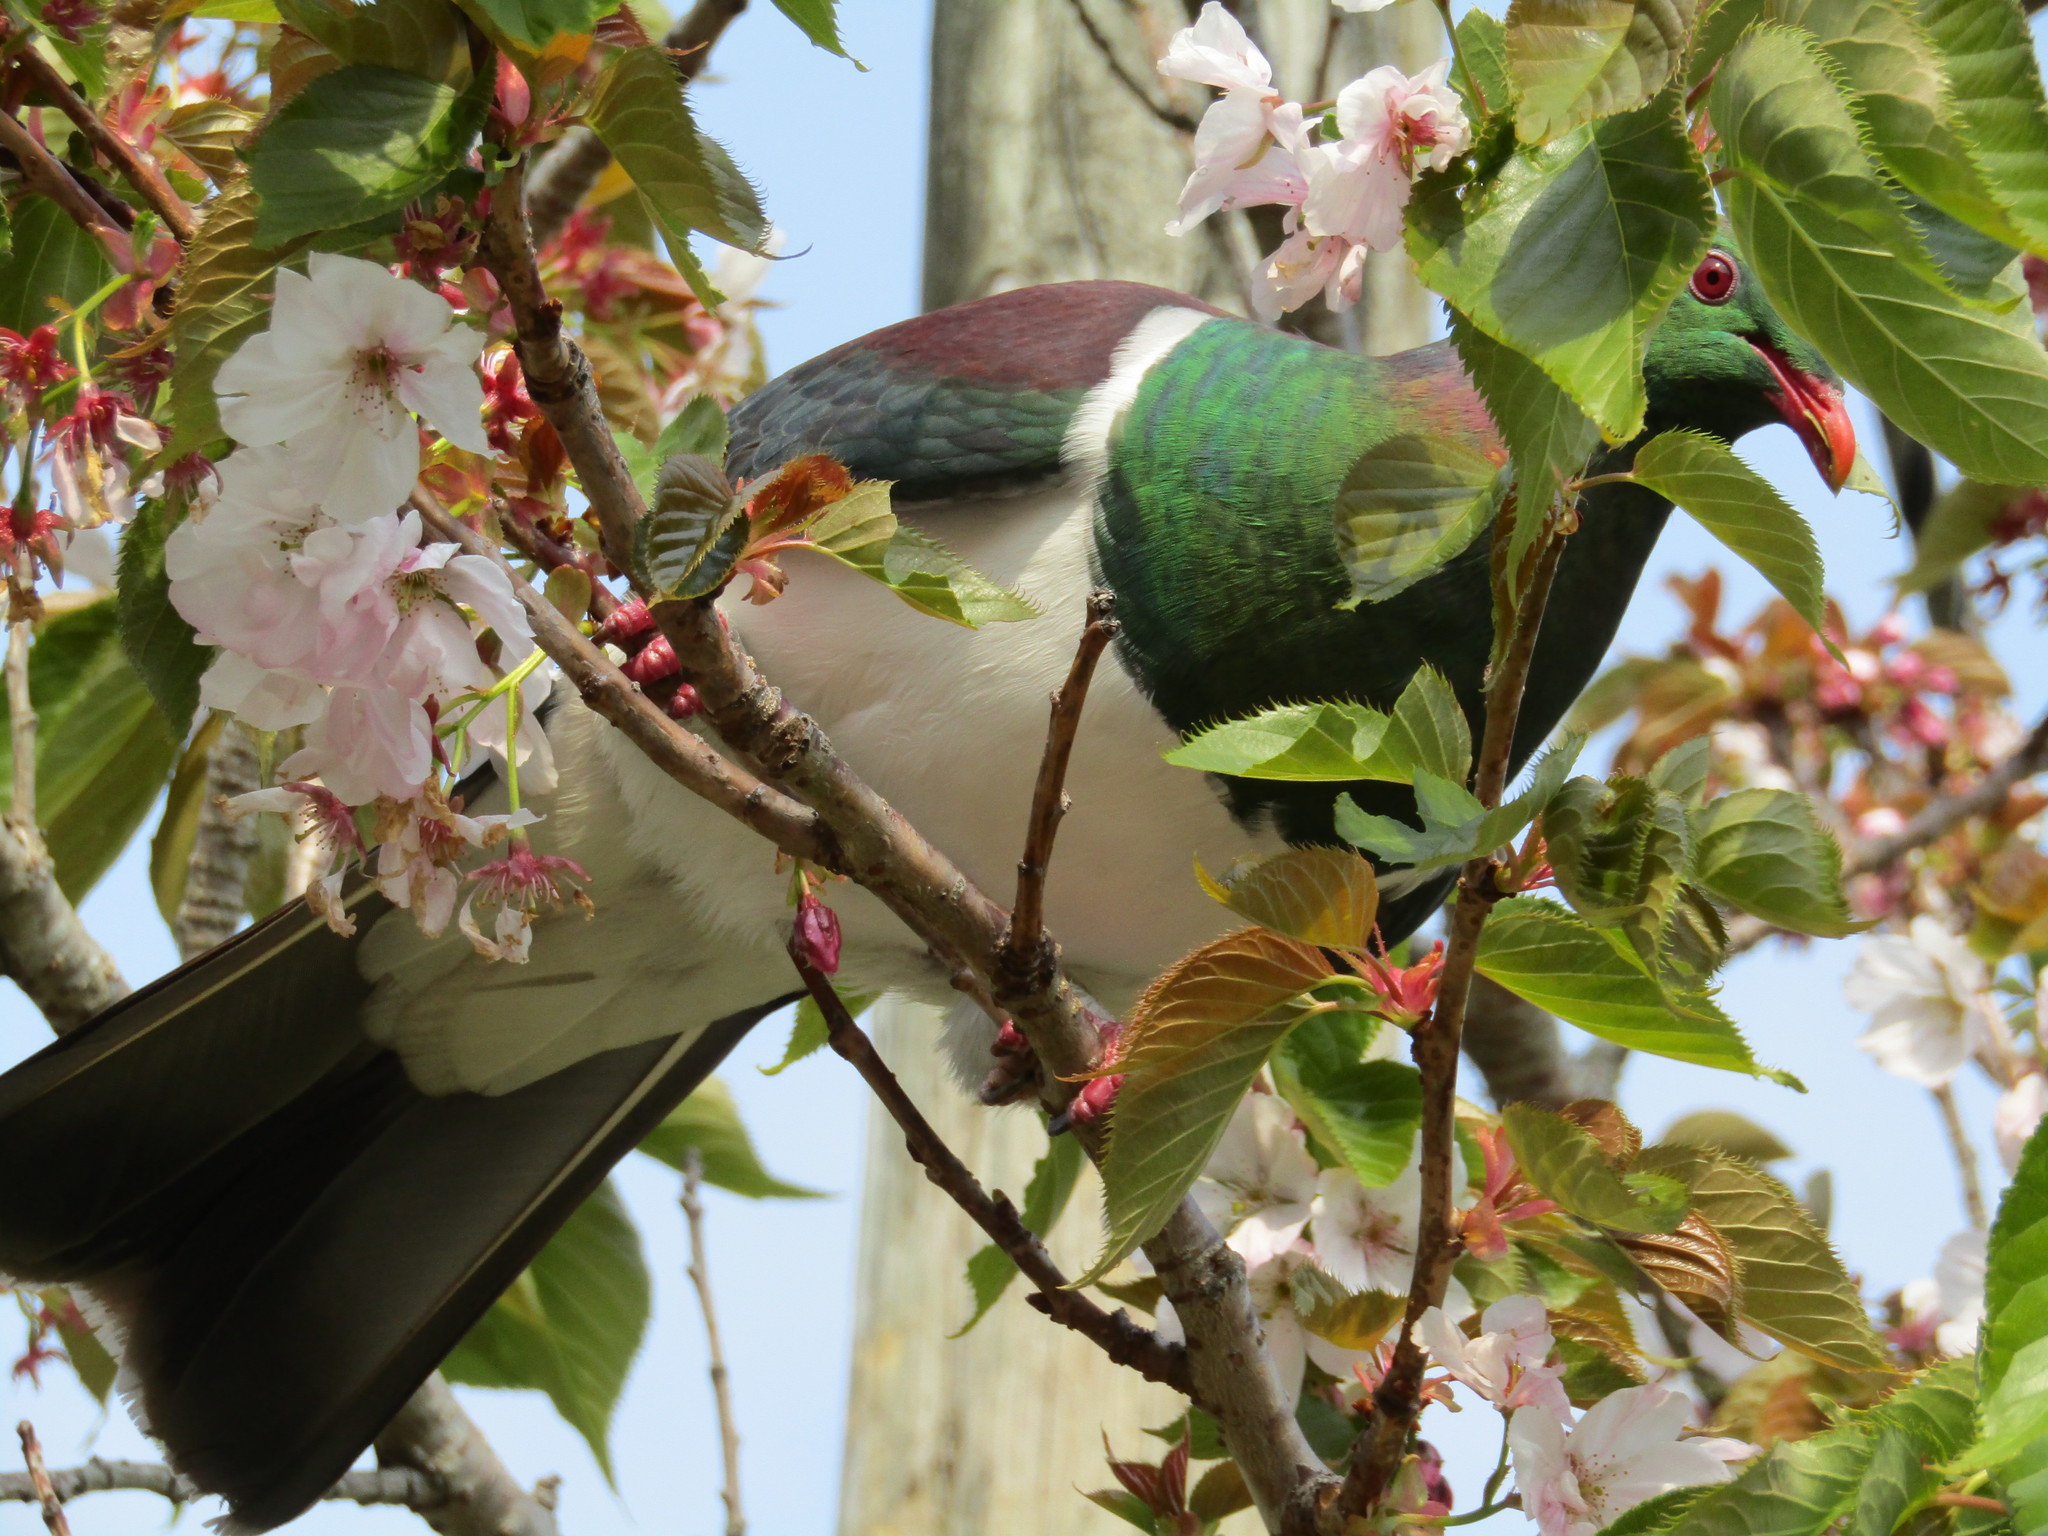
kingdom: Animalia
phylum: Chordata
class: Aves
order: Columbiformes
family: Columbidae
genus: Hemiphaga
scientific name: Hemiphaga novaeseelandiae
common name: New zealand pigeon
